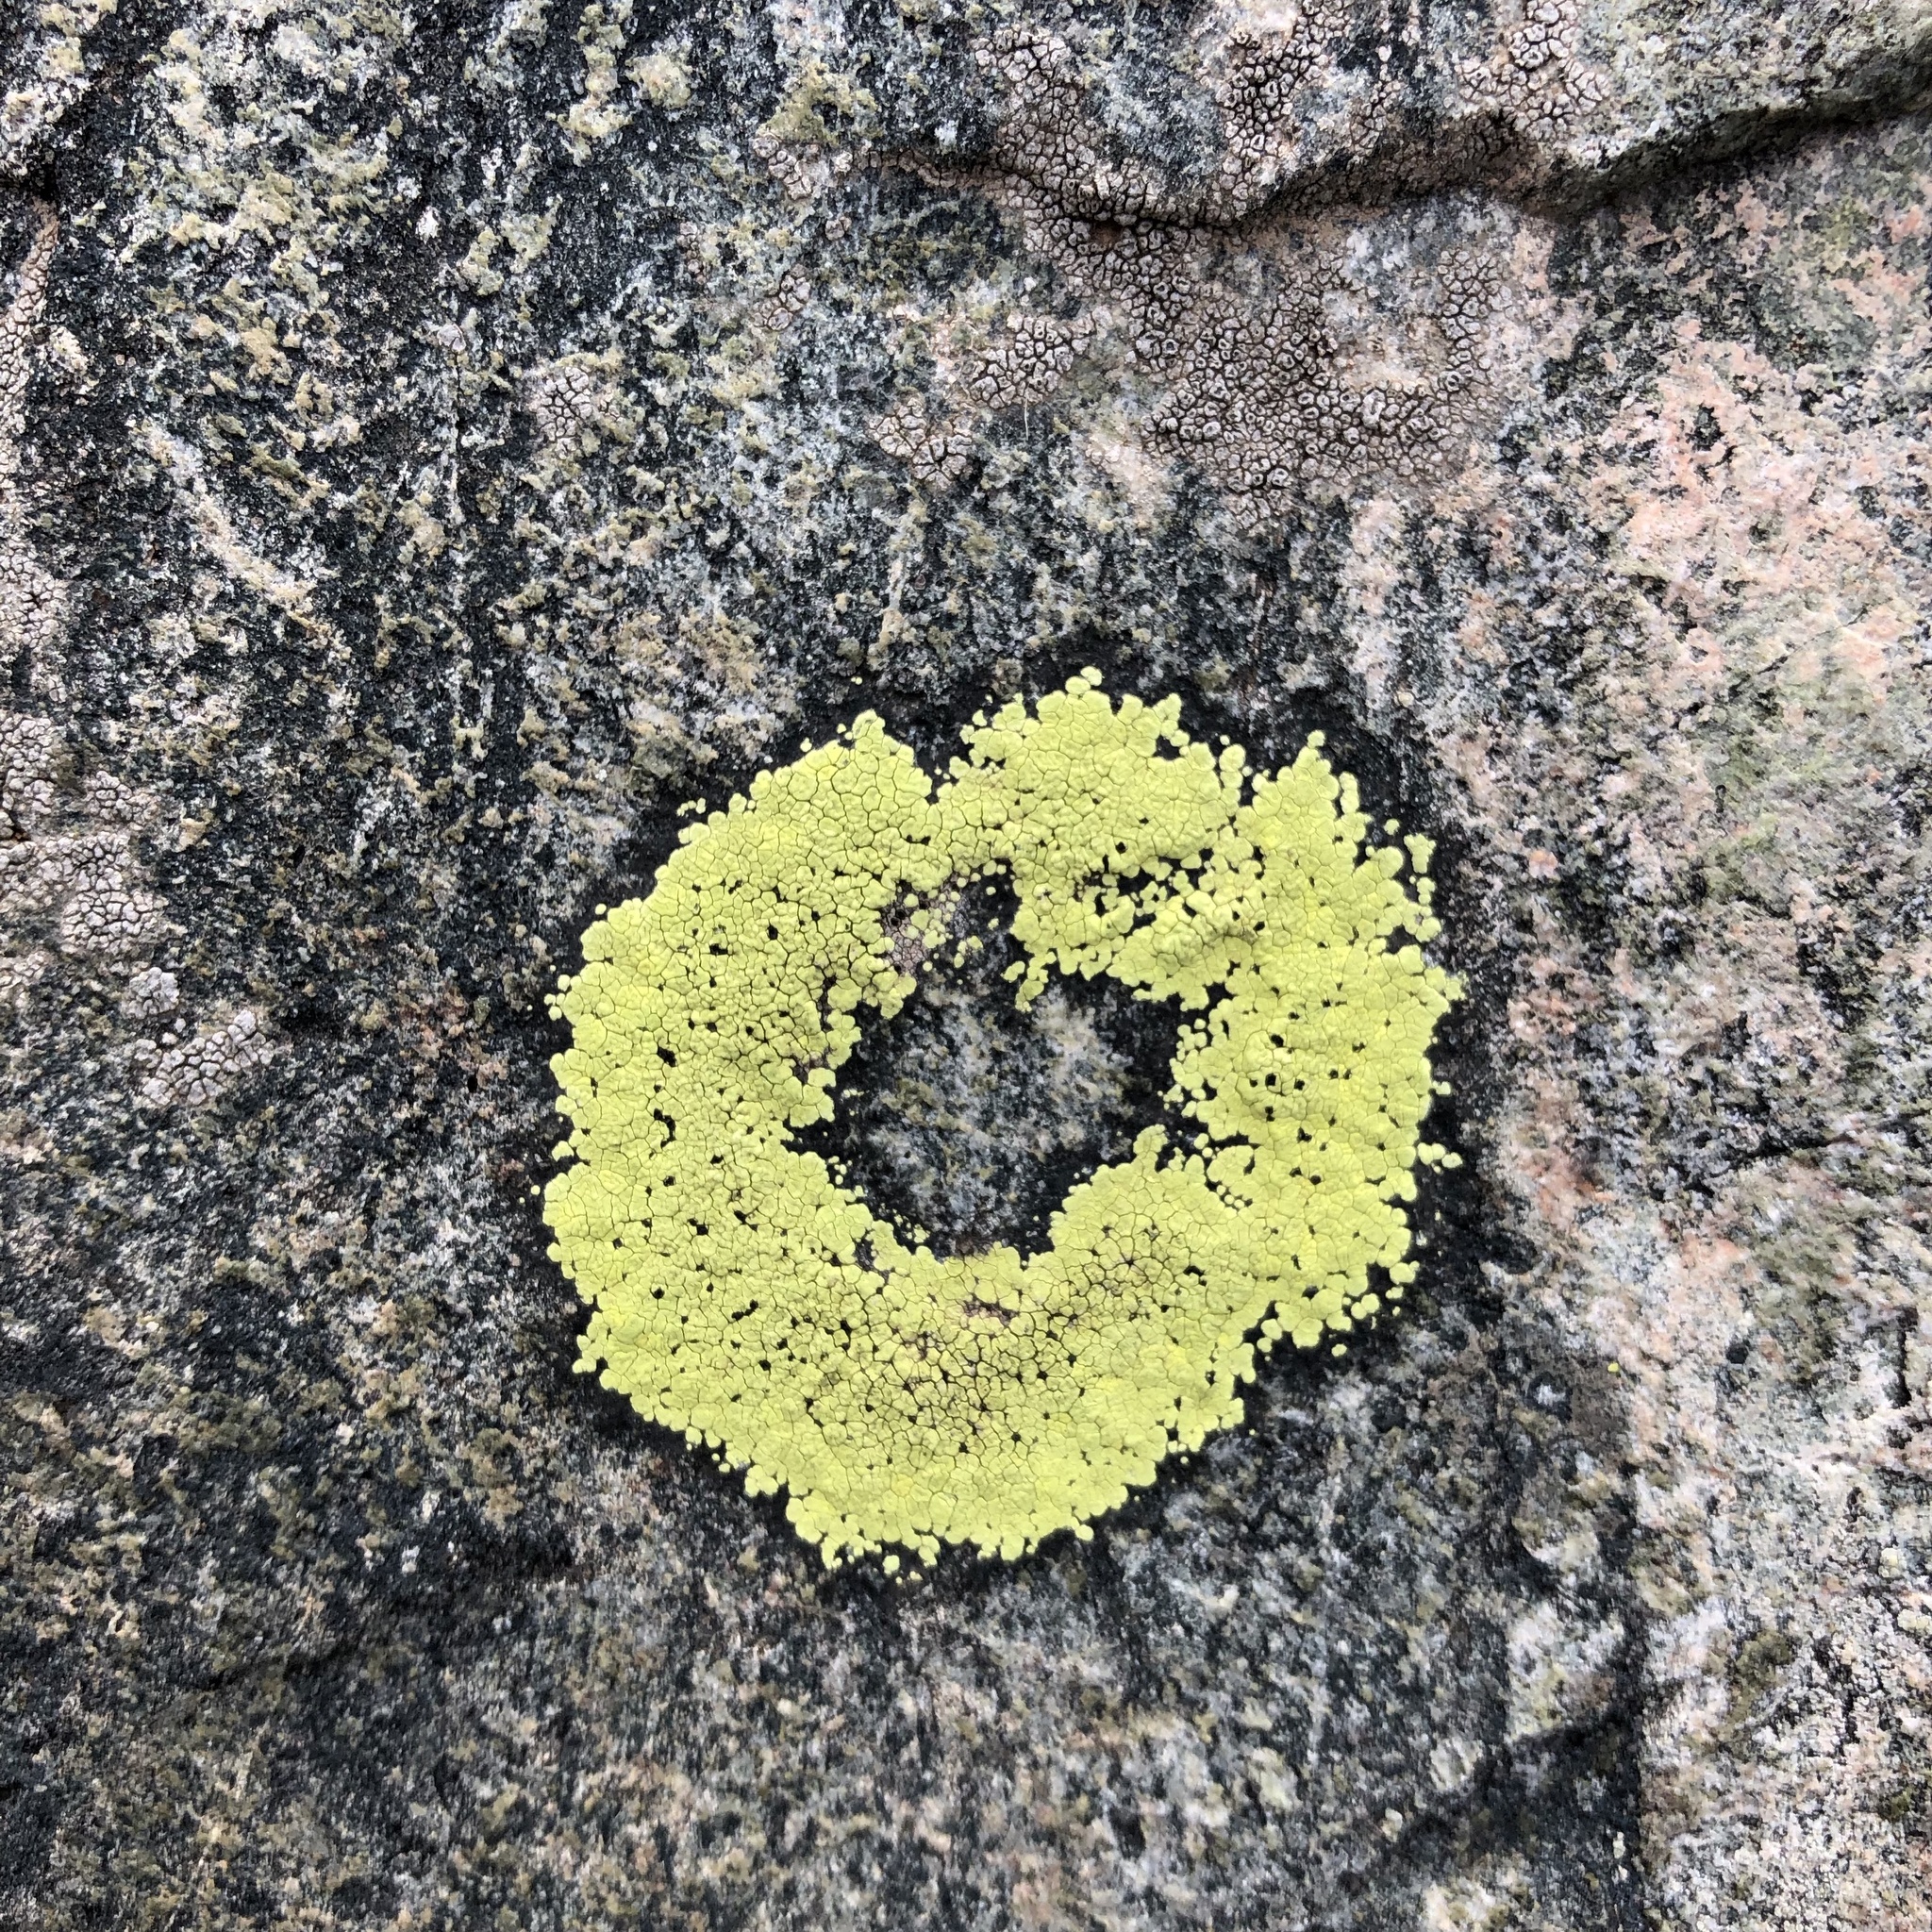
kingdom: Fungi
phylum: Ascomycota
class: Lecanoromycetes
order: Rhizocarpales
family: Rhizocarpaceae
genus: Rhizocarpon
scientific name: Rhizocarpon geographicum
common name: Yellow map lichen
